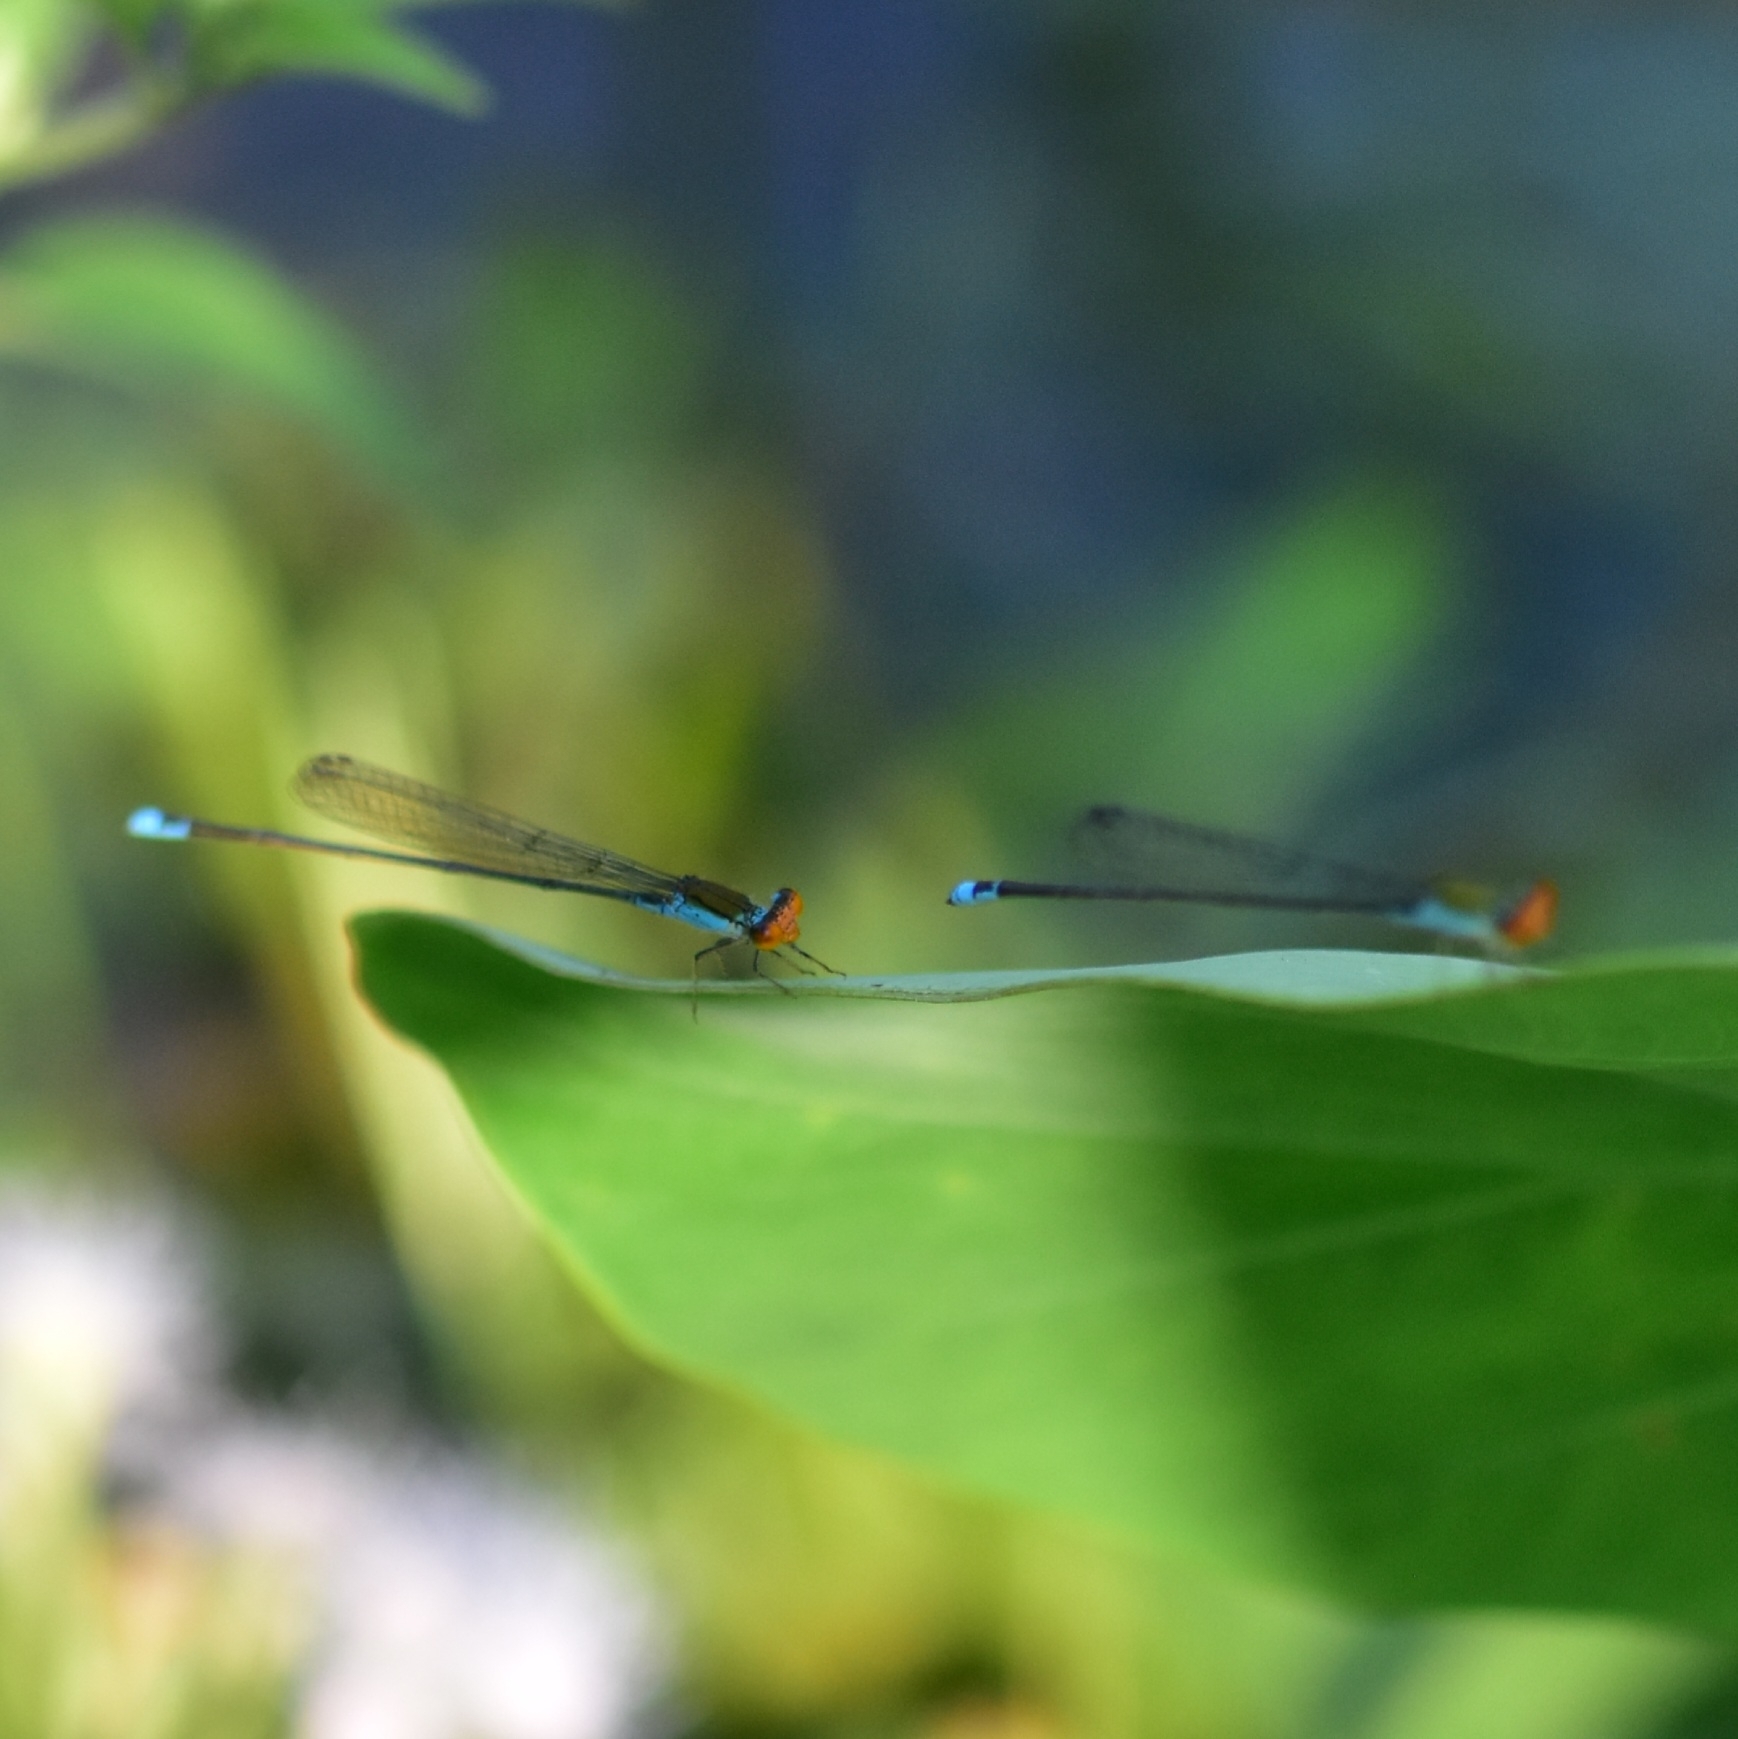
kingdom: Animalia
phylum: Arthropoda
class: Insecta
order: Odonata
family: Coenagrionidae
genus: Pseudagrion
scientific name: Pseudagrion rubriceps
